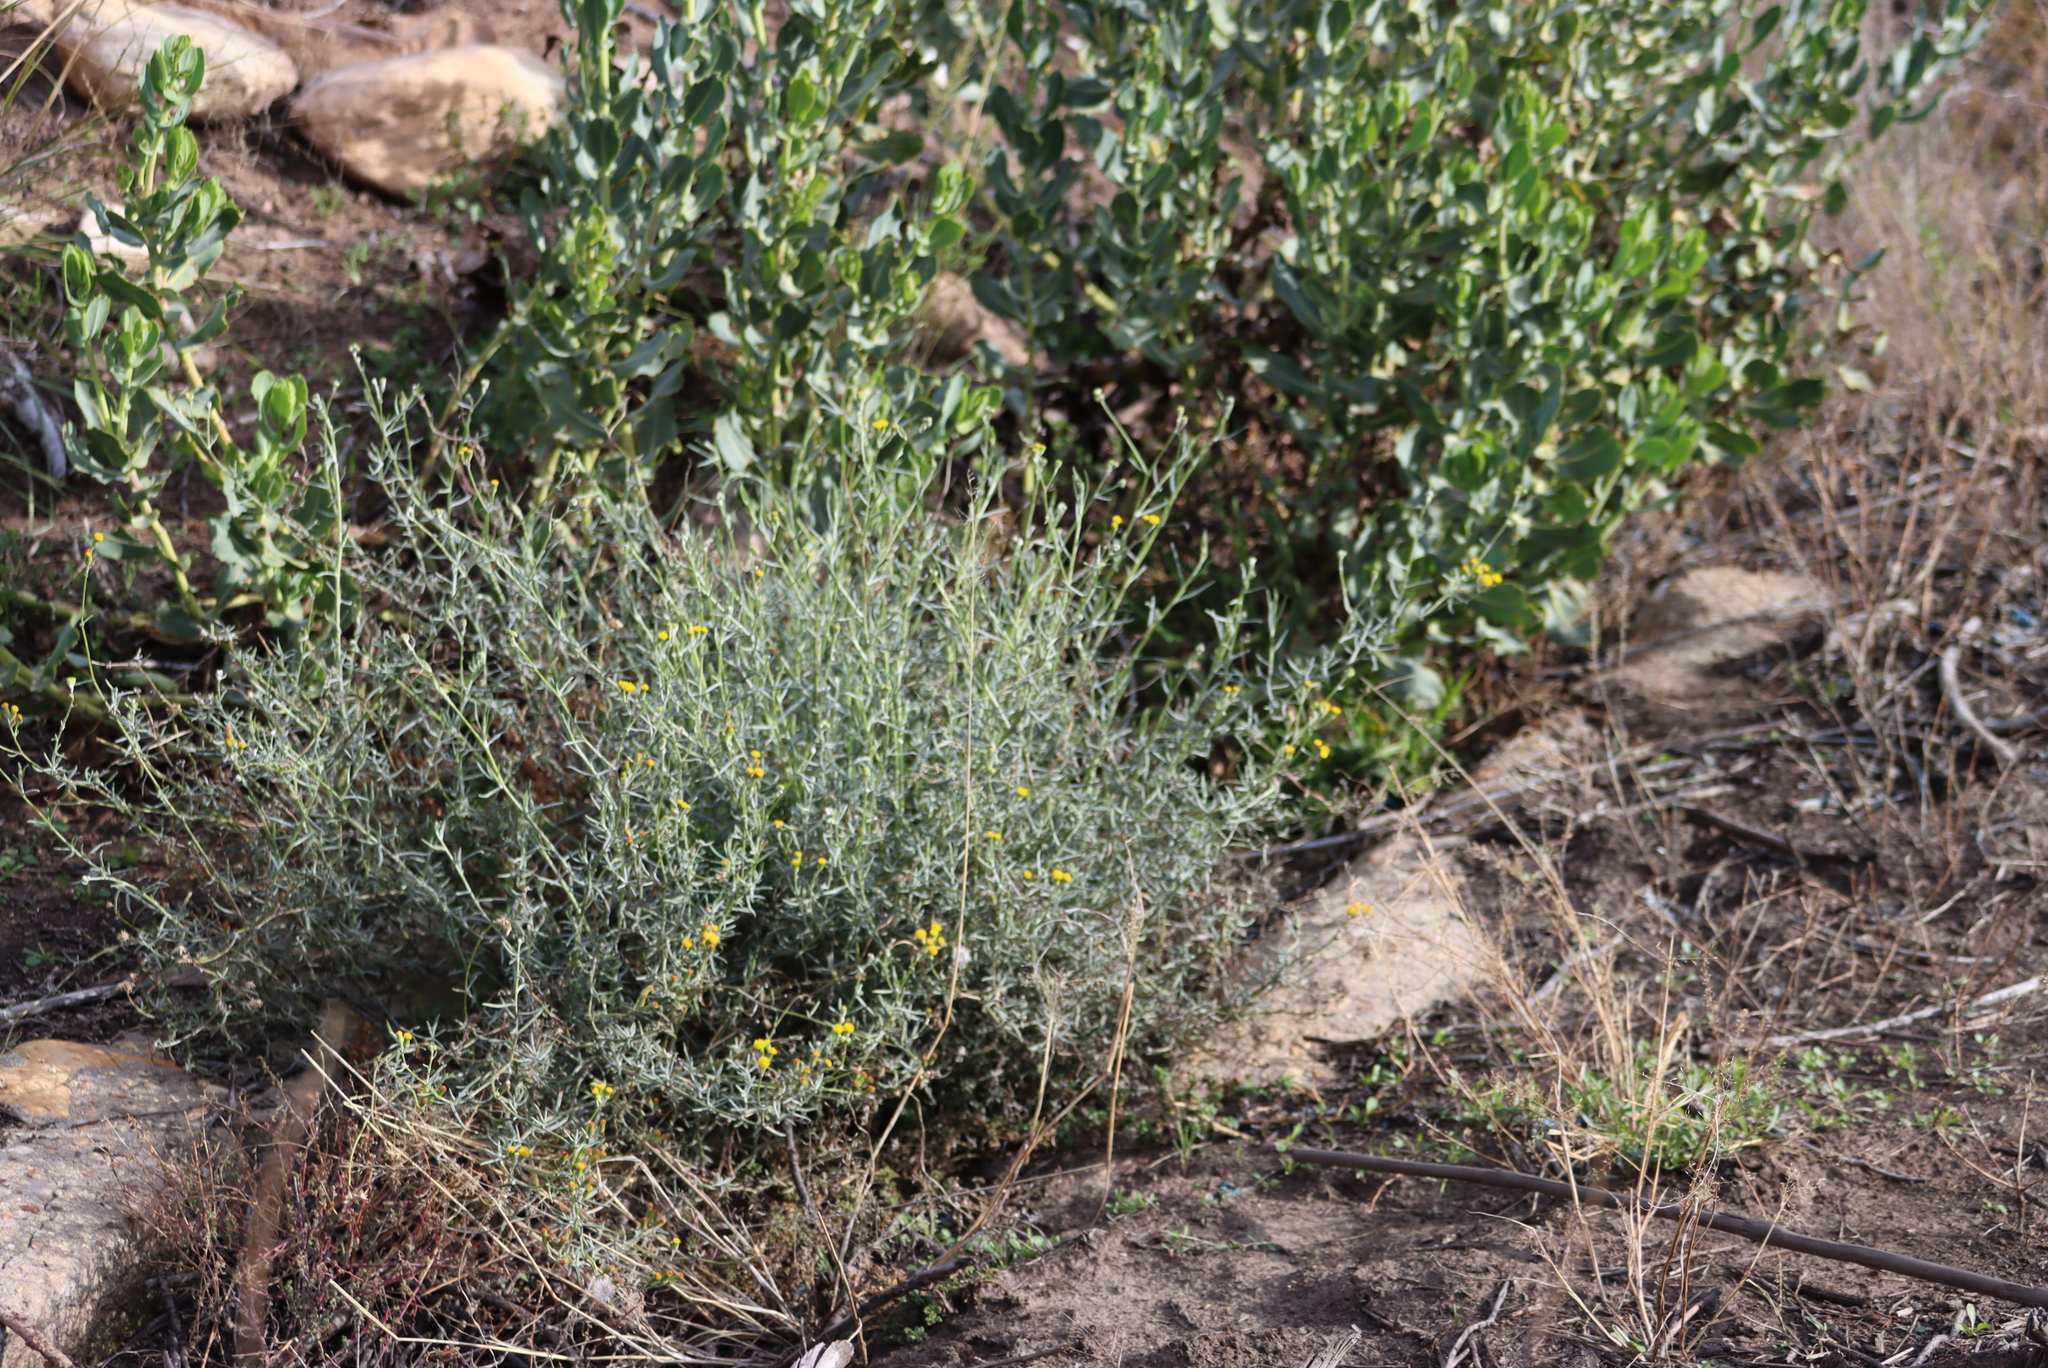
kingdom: Plantae
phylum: Tracheophyta
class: Magnoliopsida
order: Asterales
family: Asteraceae
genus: Senecio
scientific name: Senecio niveus
